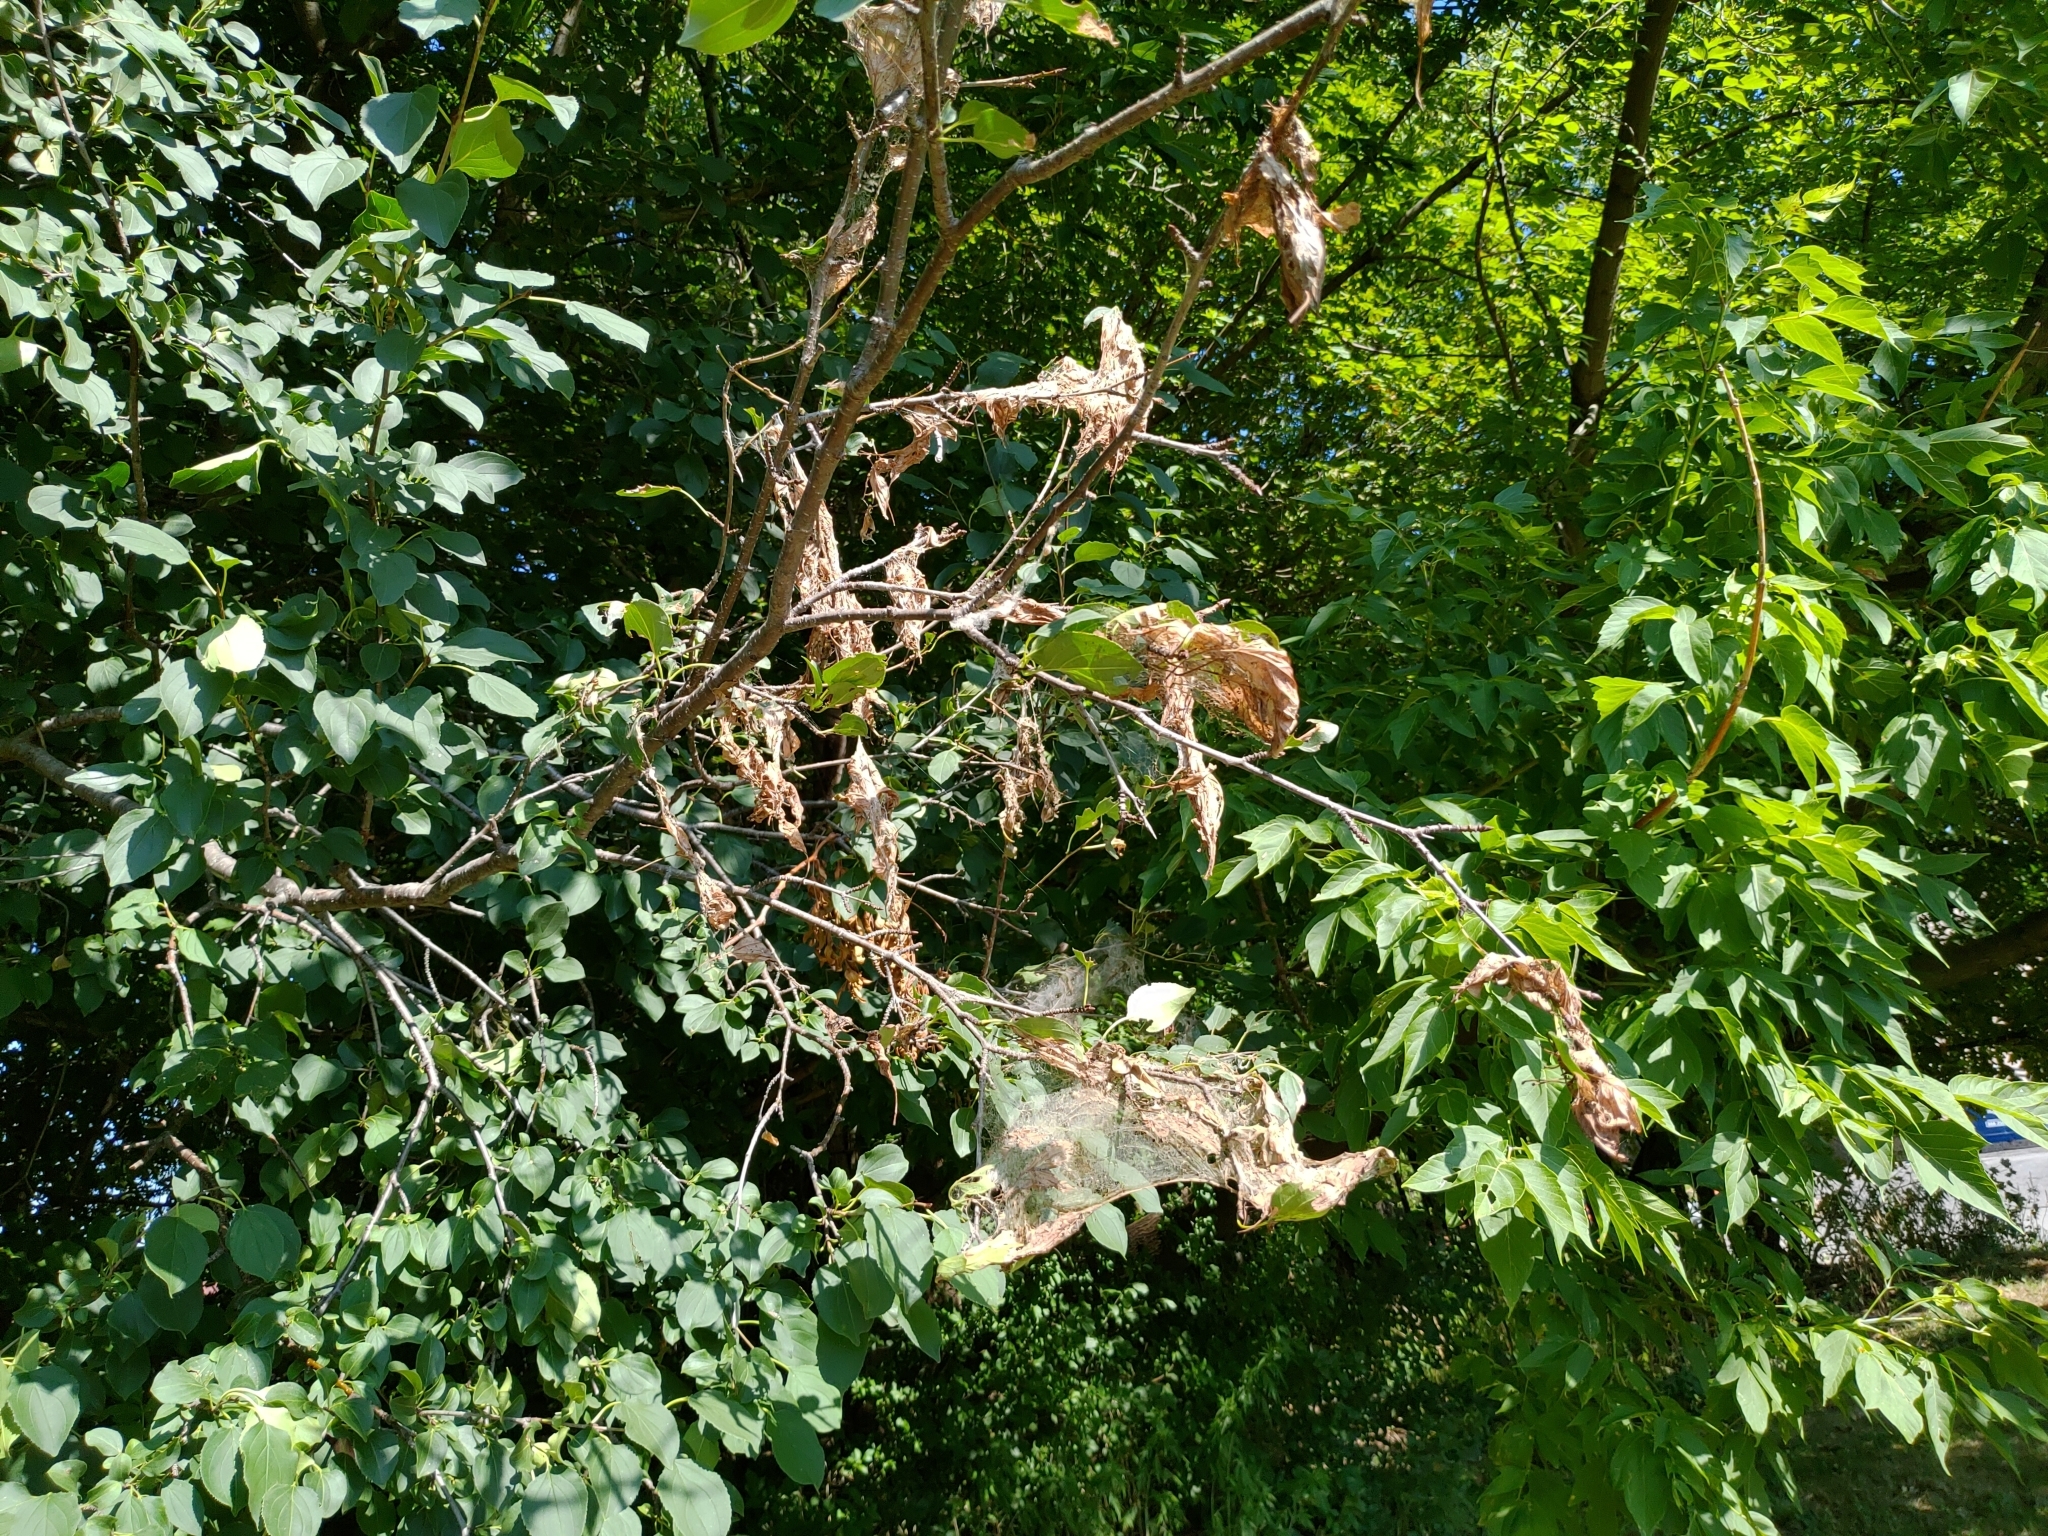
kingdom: Animalia
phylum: Arthropoda
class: Insecta
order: Lepidoptera
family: Erebidae
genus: Hyphantria
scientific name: Hyphantria cunea
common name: American white moth
